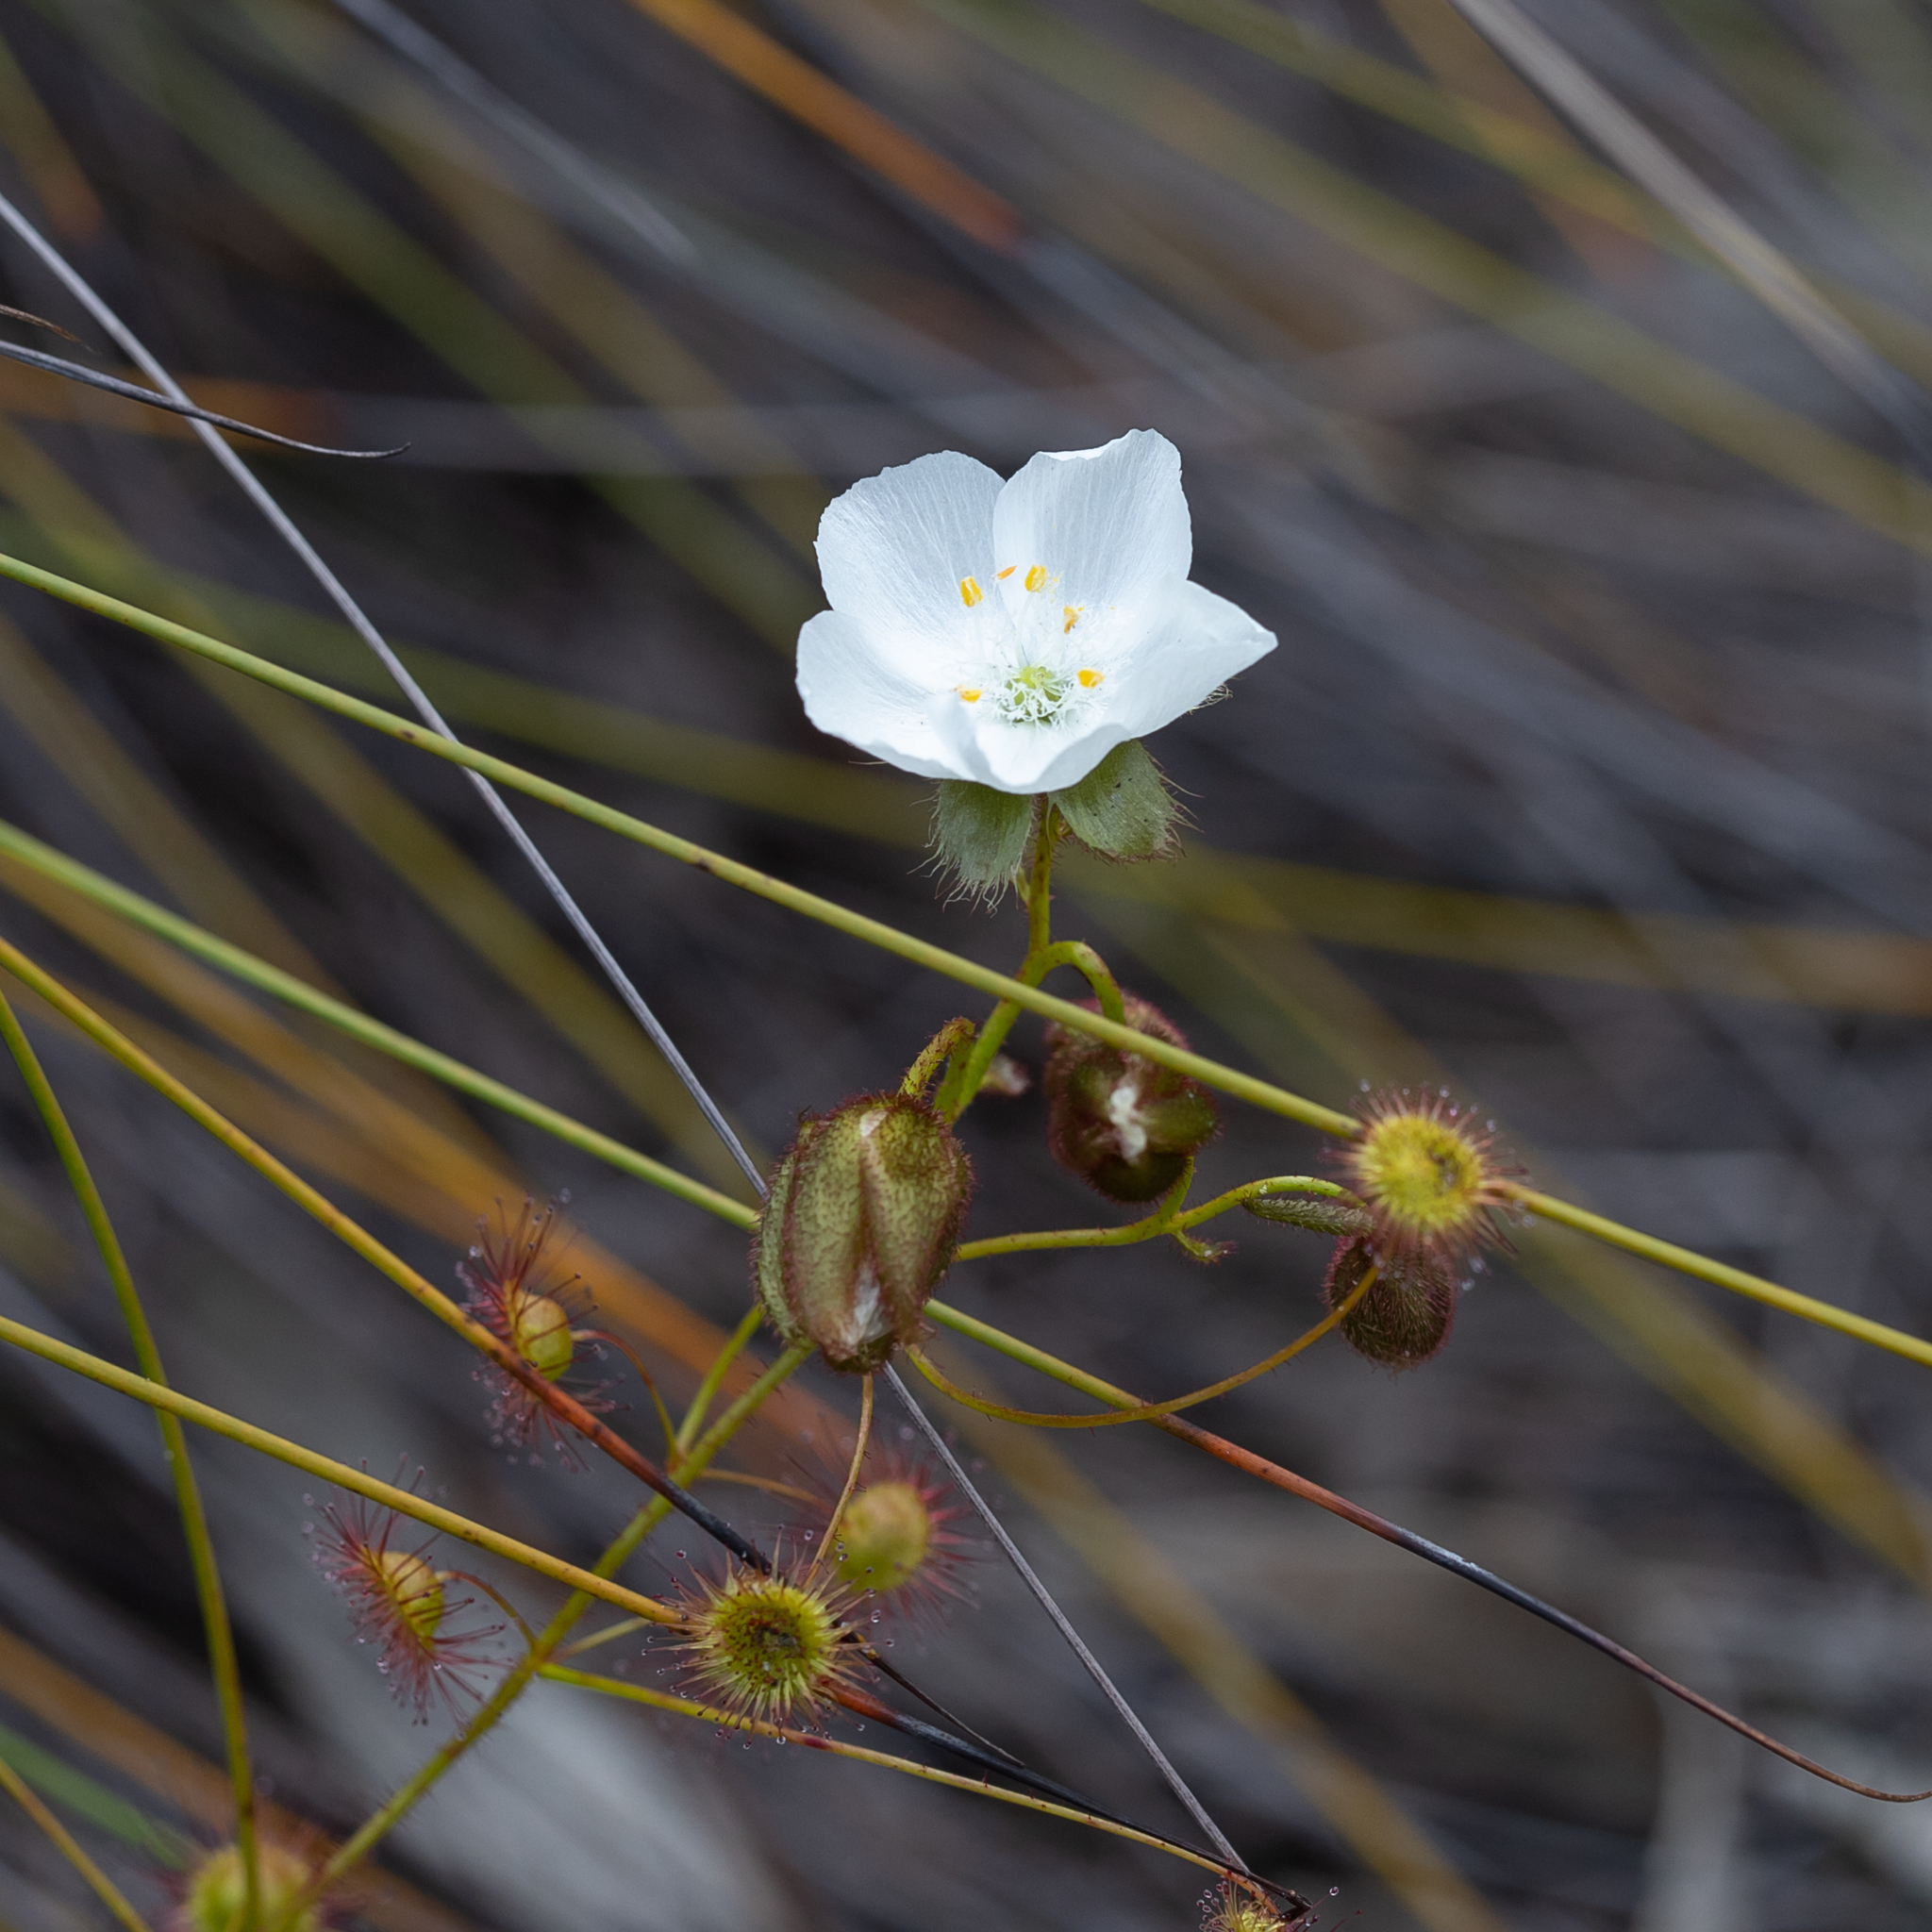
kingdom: Plantae
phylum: Tracheophyta
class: Magnoliopsida
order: Caryophyllales
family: Droseraceae
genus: Drosera
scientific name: Drosera planchonii
